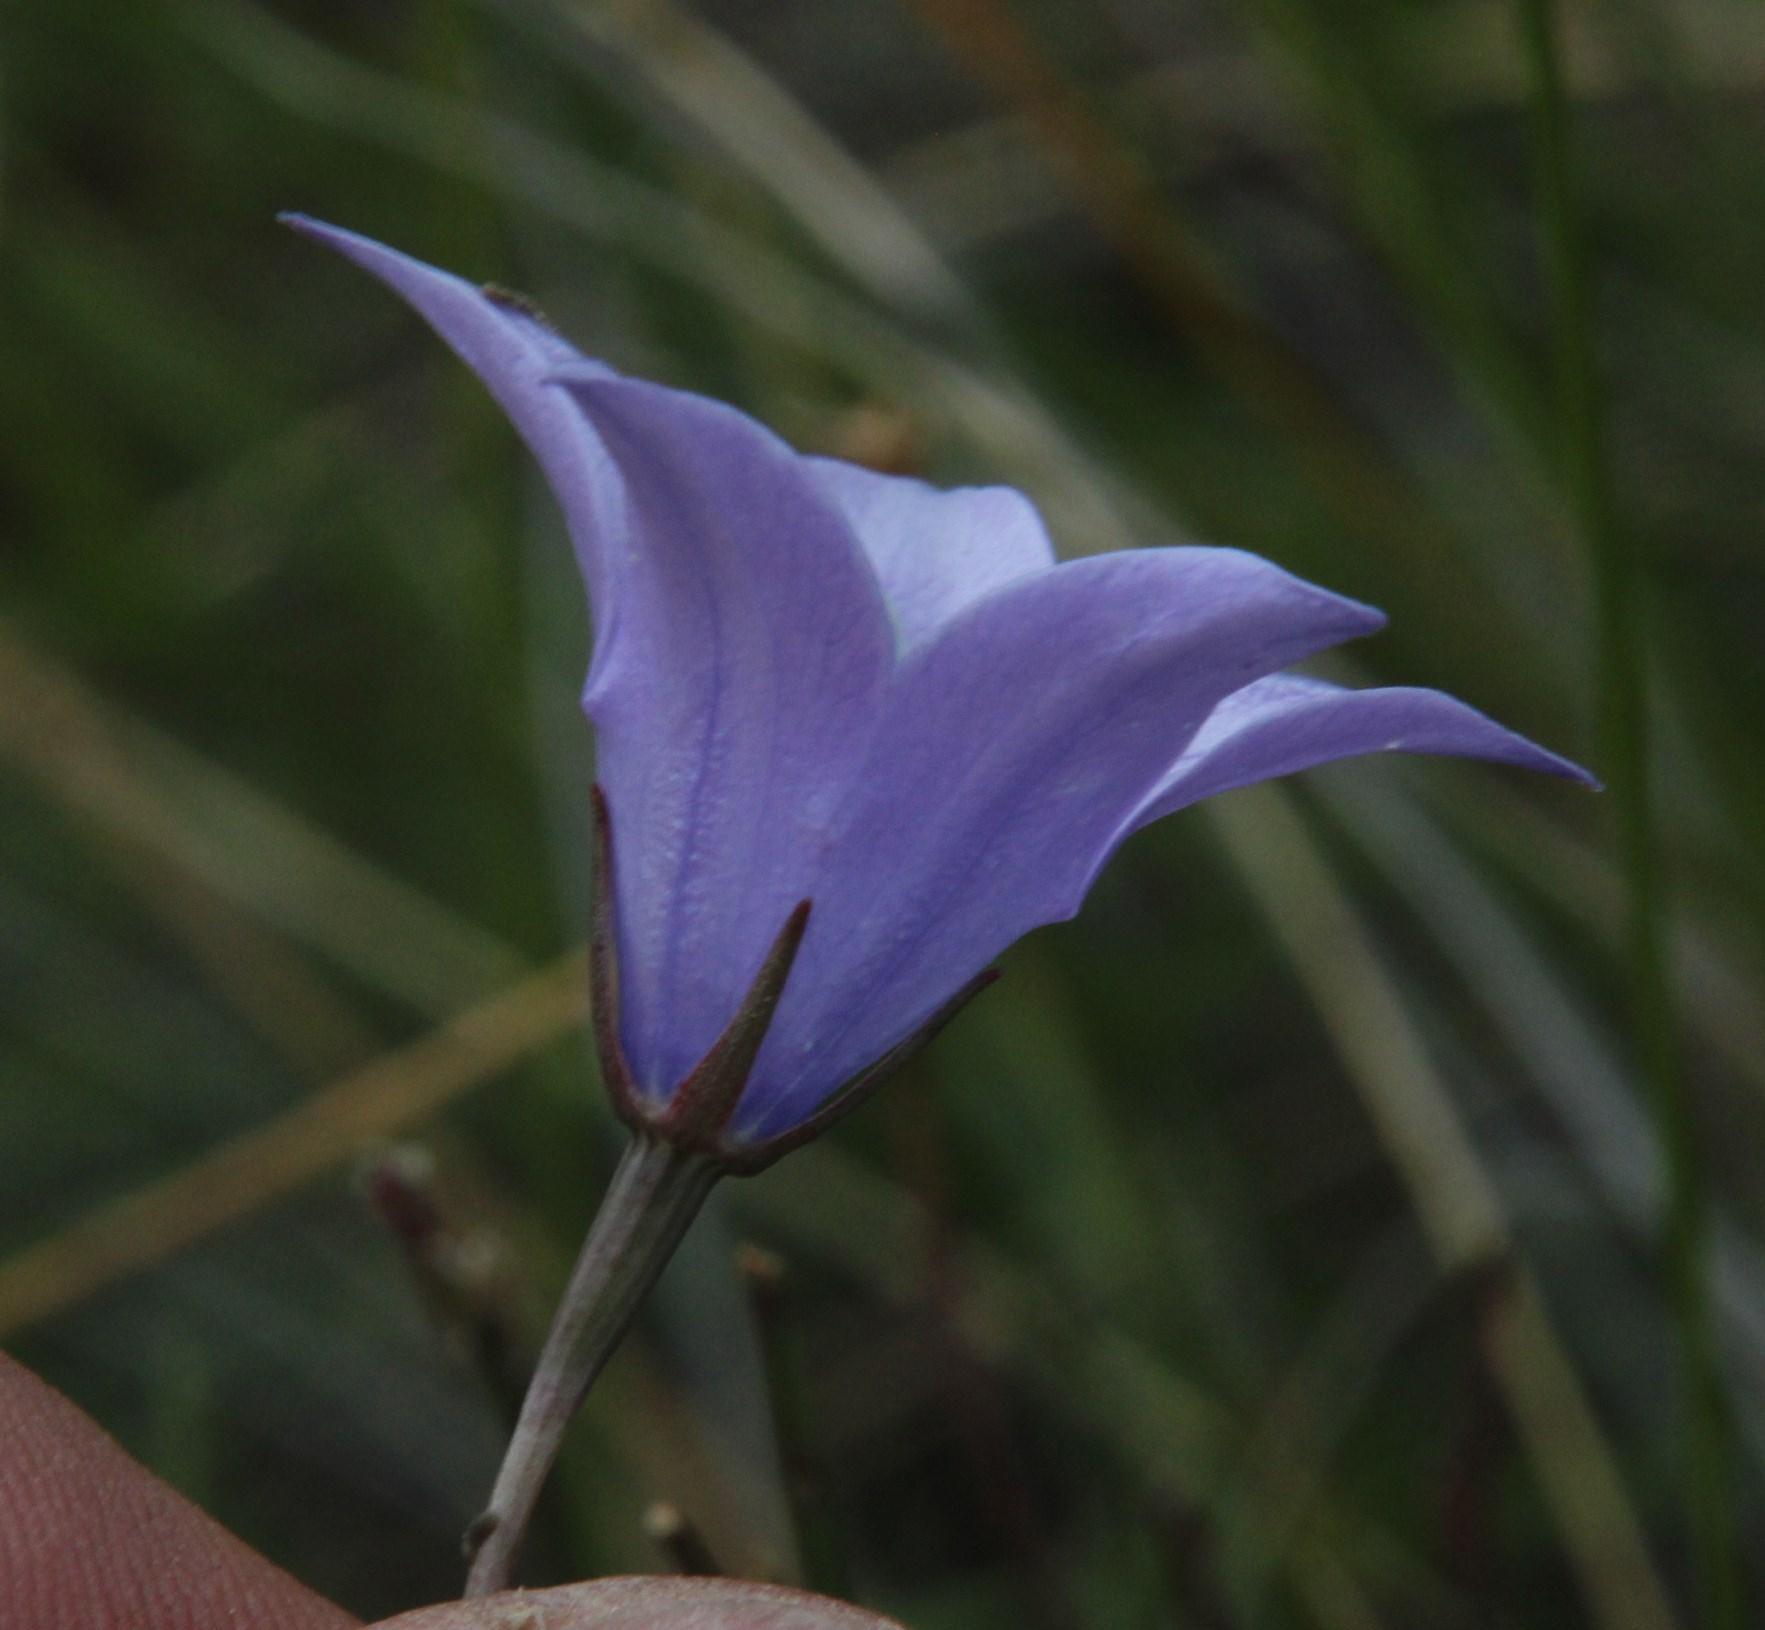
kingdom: Plantae
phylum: Tracheophyta
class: Magnoliopsida
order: Asterales
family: Campanulaceae
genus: Wahlenbergia
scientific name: Wahlenbergia rivularis
